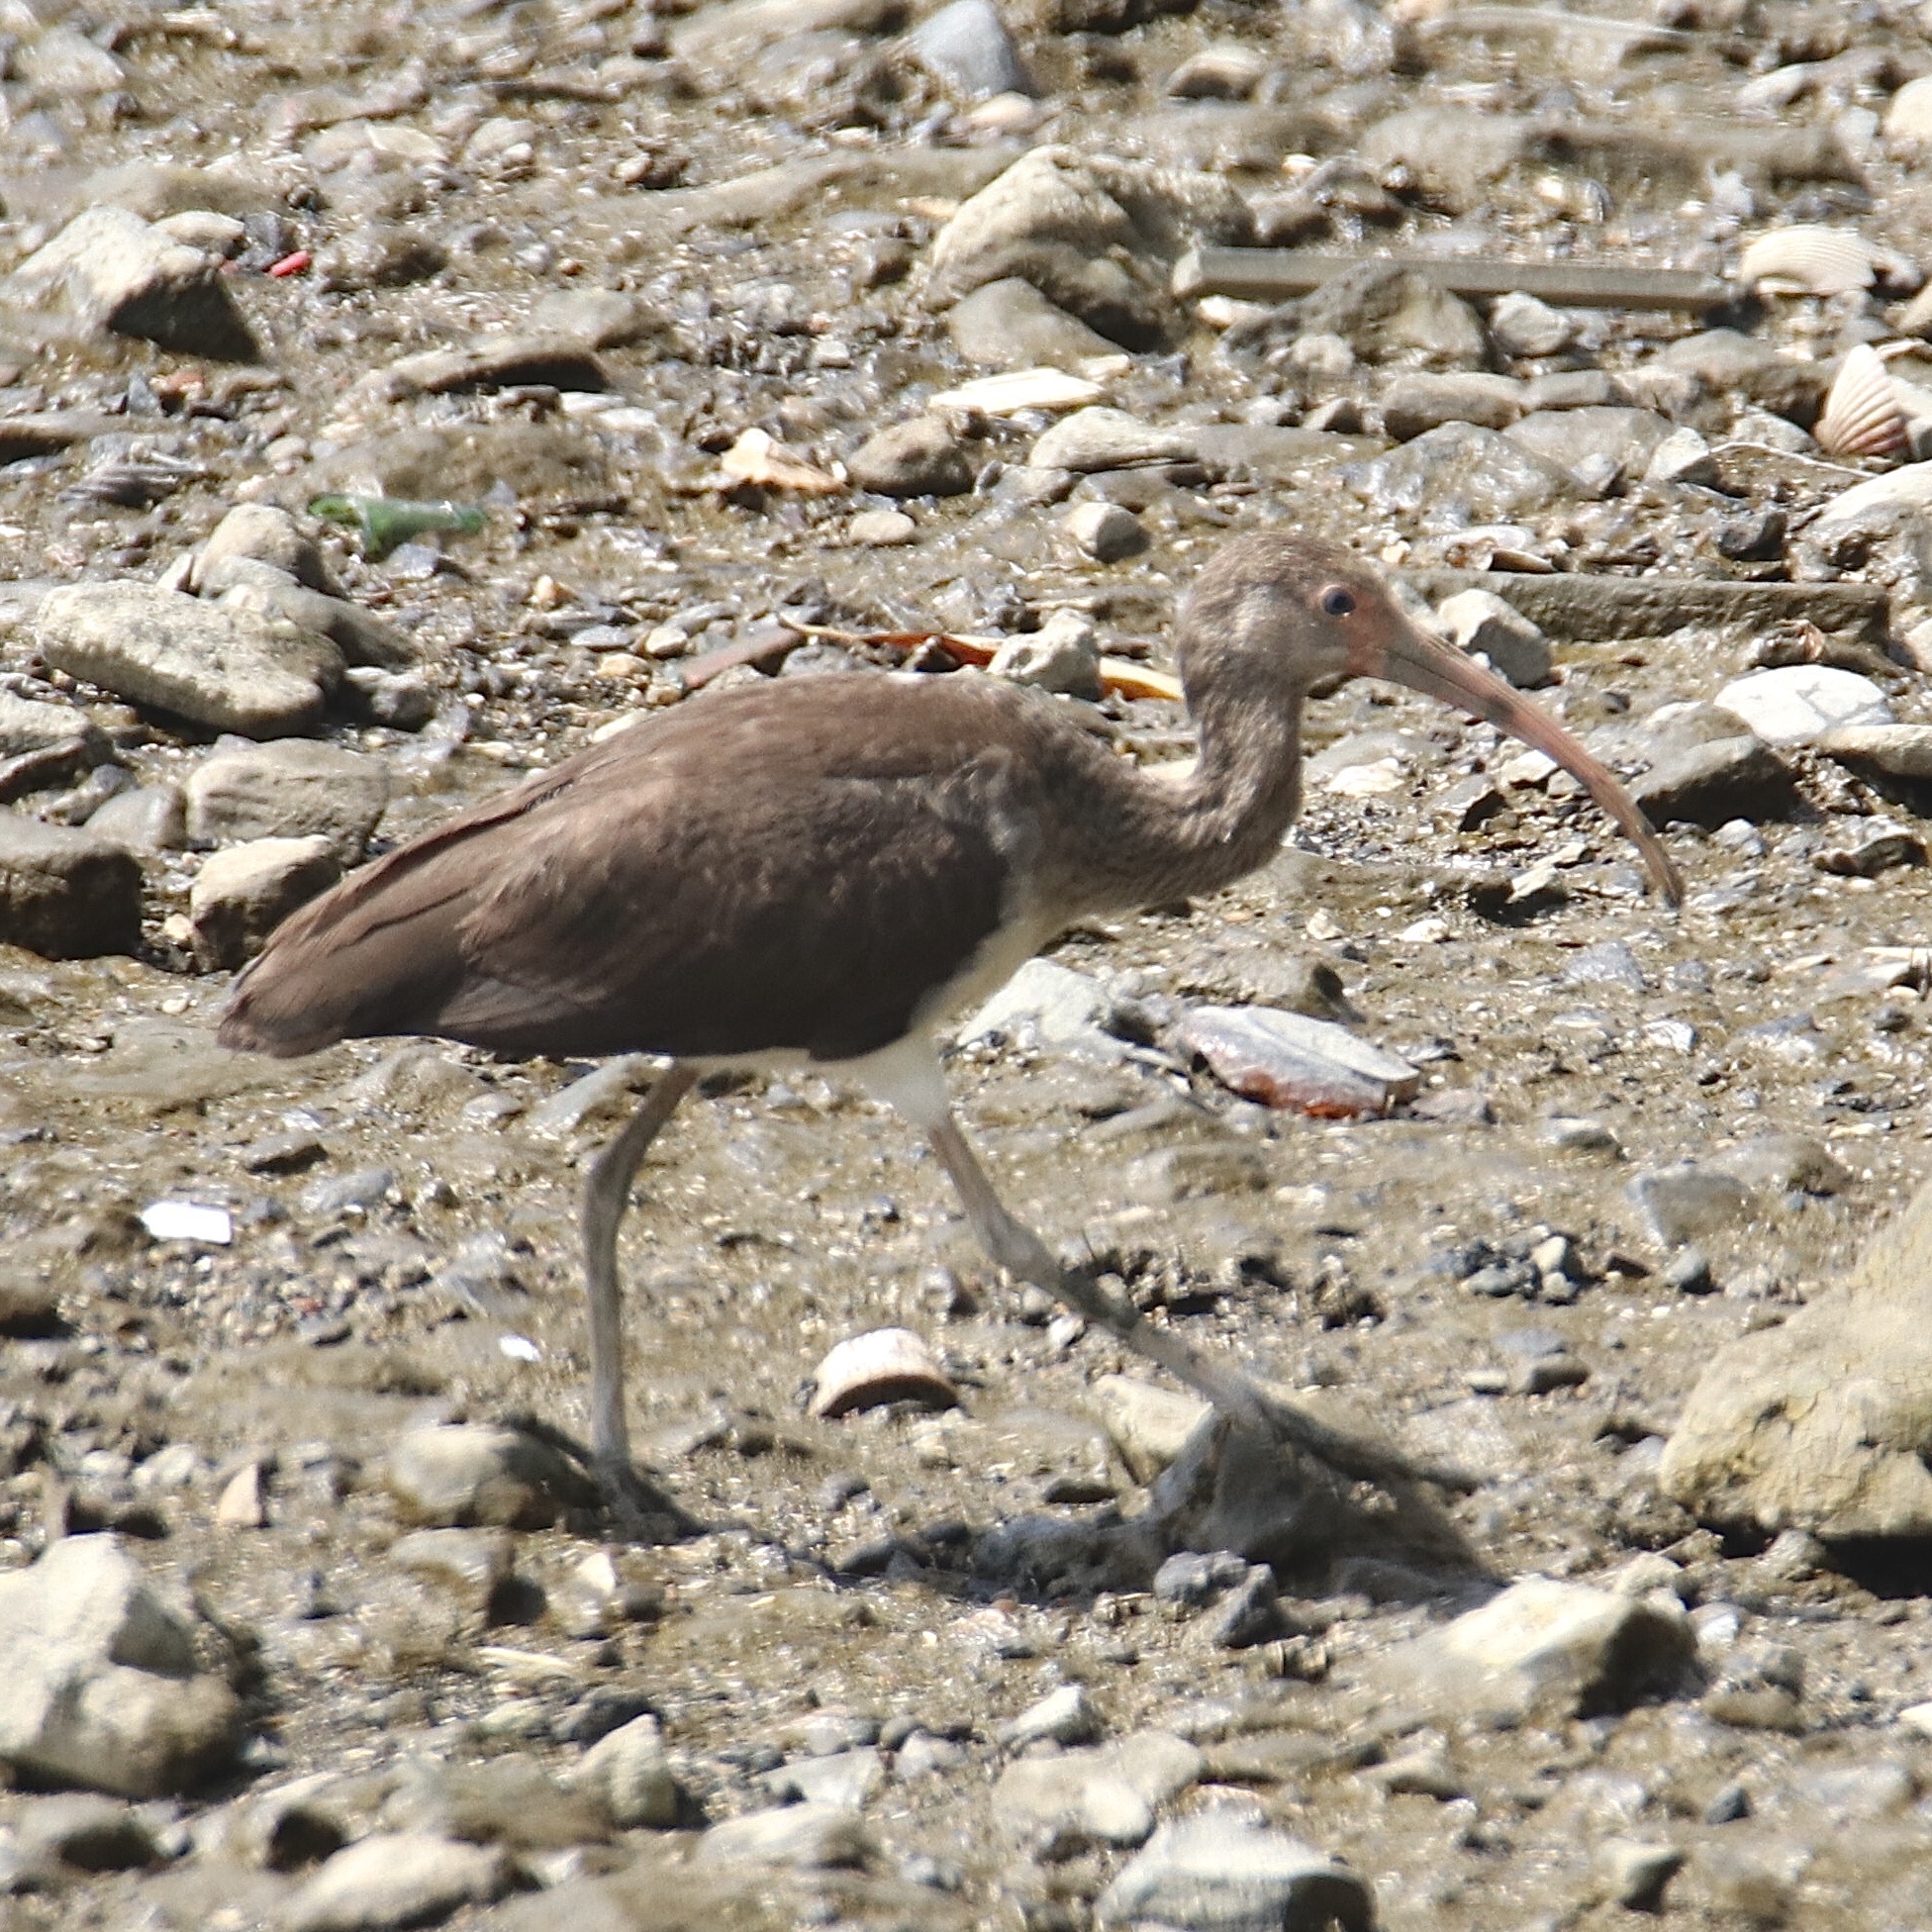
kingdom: Animalia
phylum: Chordata
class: Aves
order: Pelecaniformes
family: Threskiornithidae
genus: Eudocimus
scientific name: Eudocimus albus
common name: White ibis
